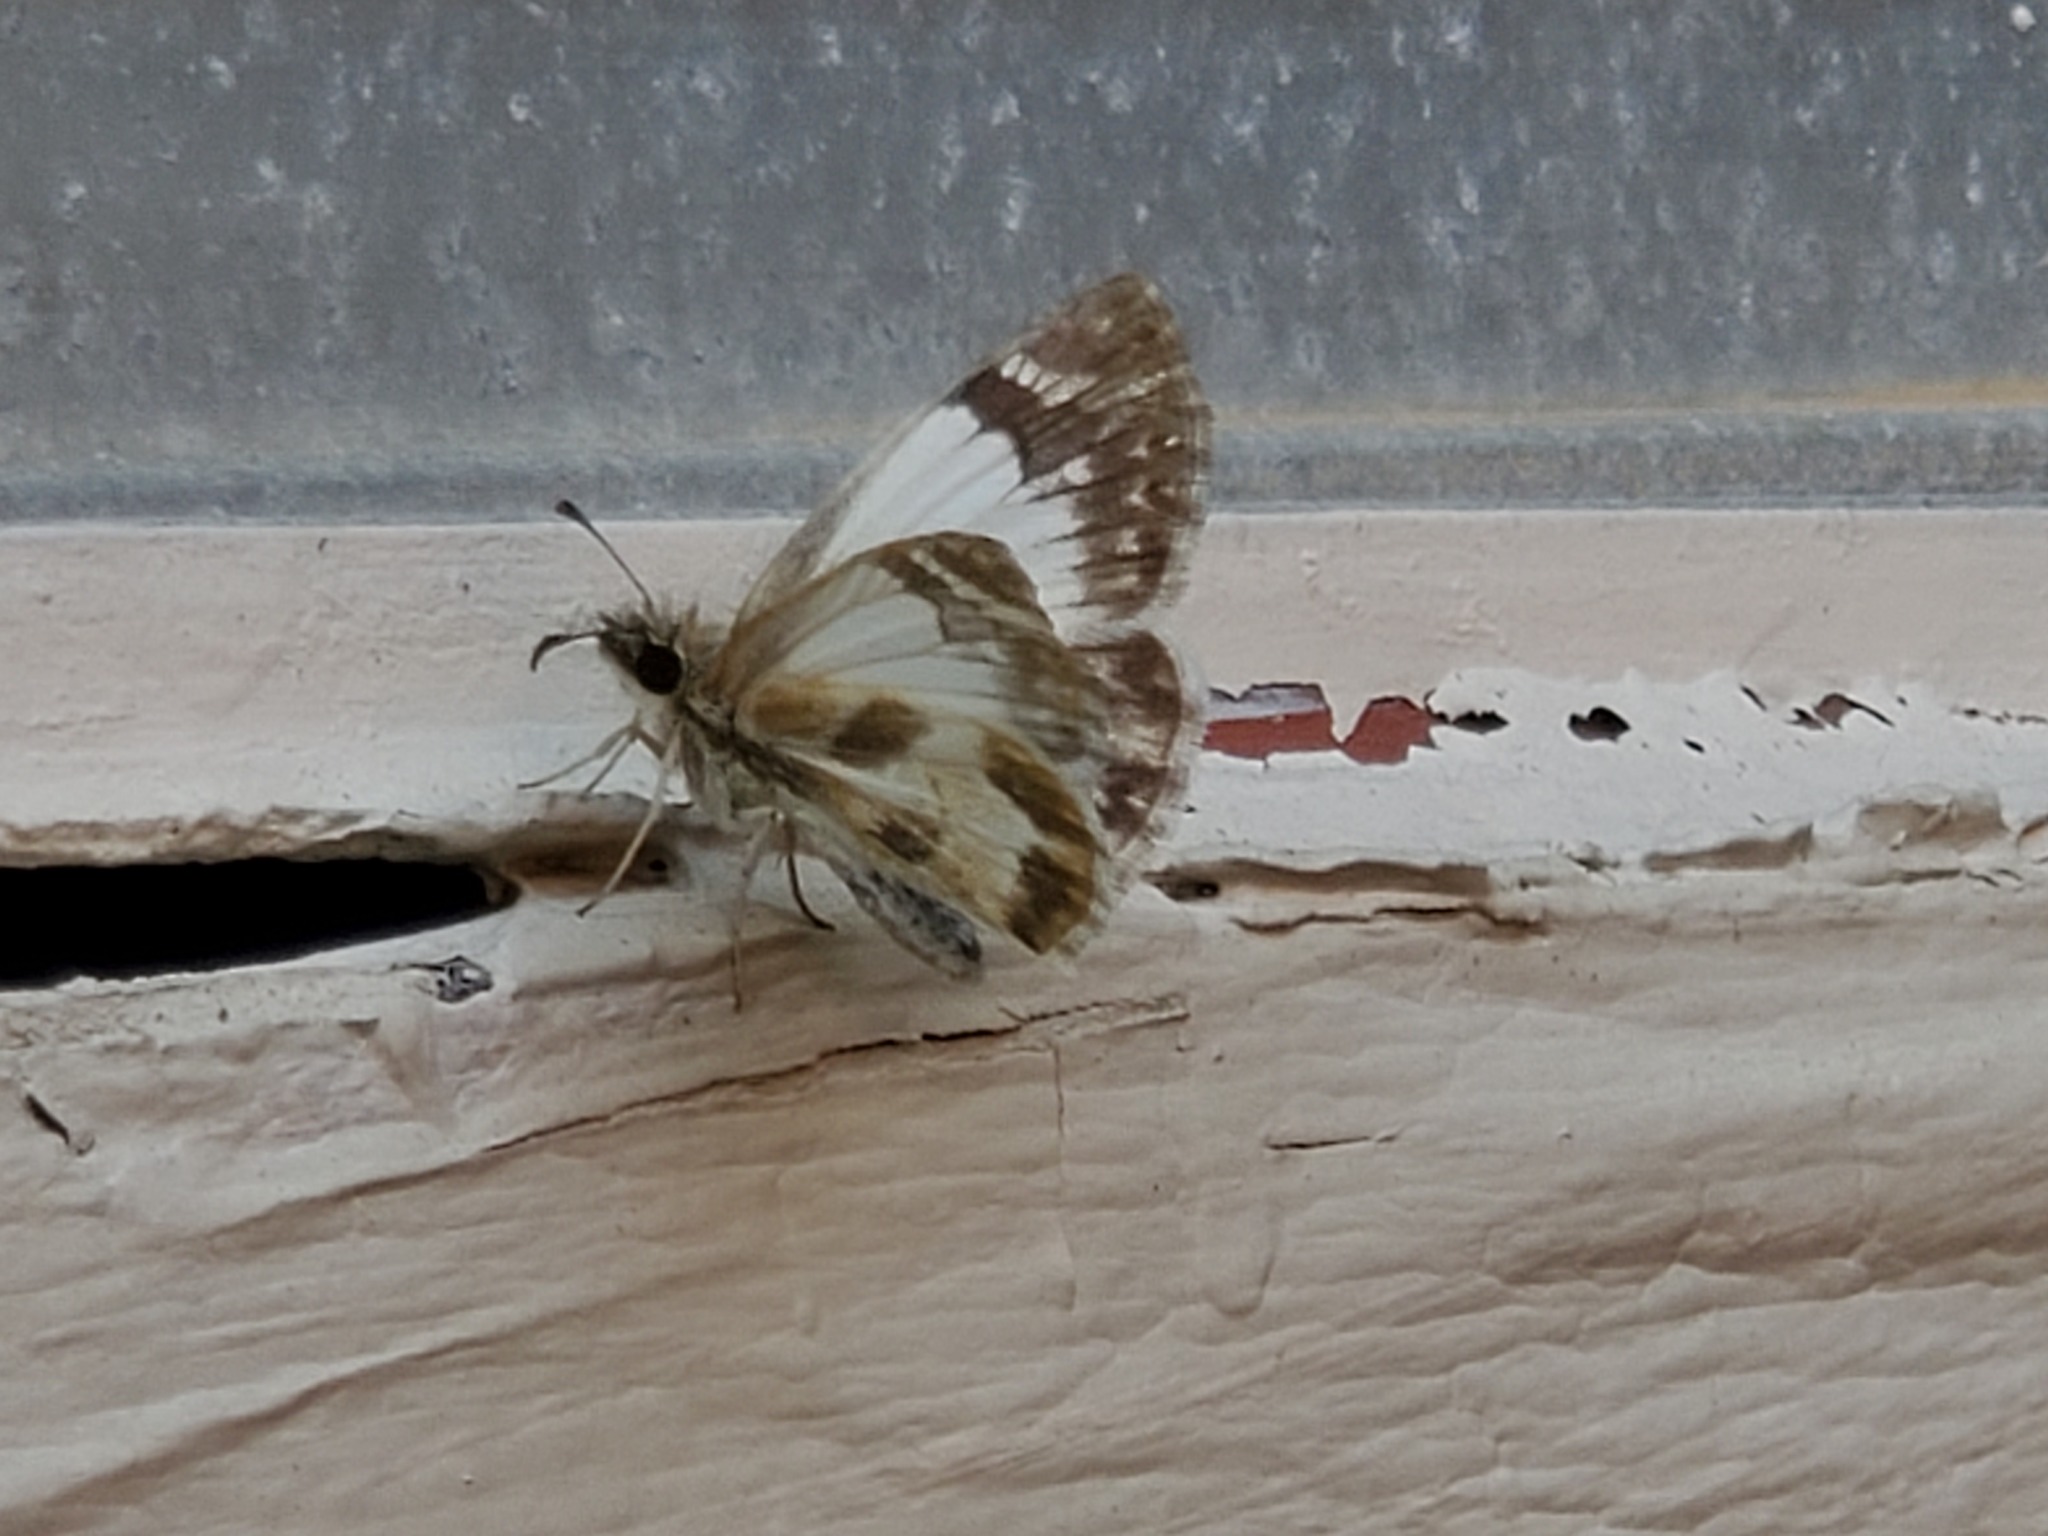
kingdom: Animalia
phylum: Arthropoda
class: Insecta
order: Lepidoptera
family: Hesperiidae
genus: Heliopetes
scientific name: Heliopetes macaira
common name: Turk's-cap white-skipper
